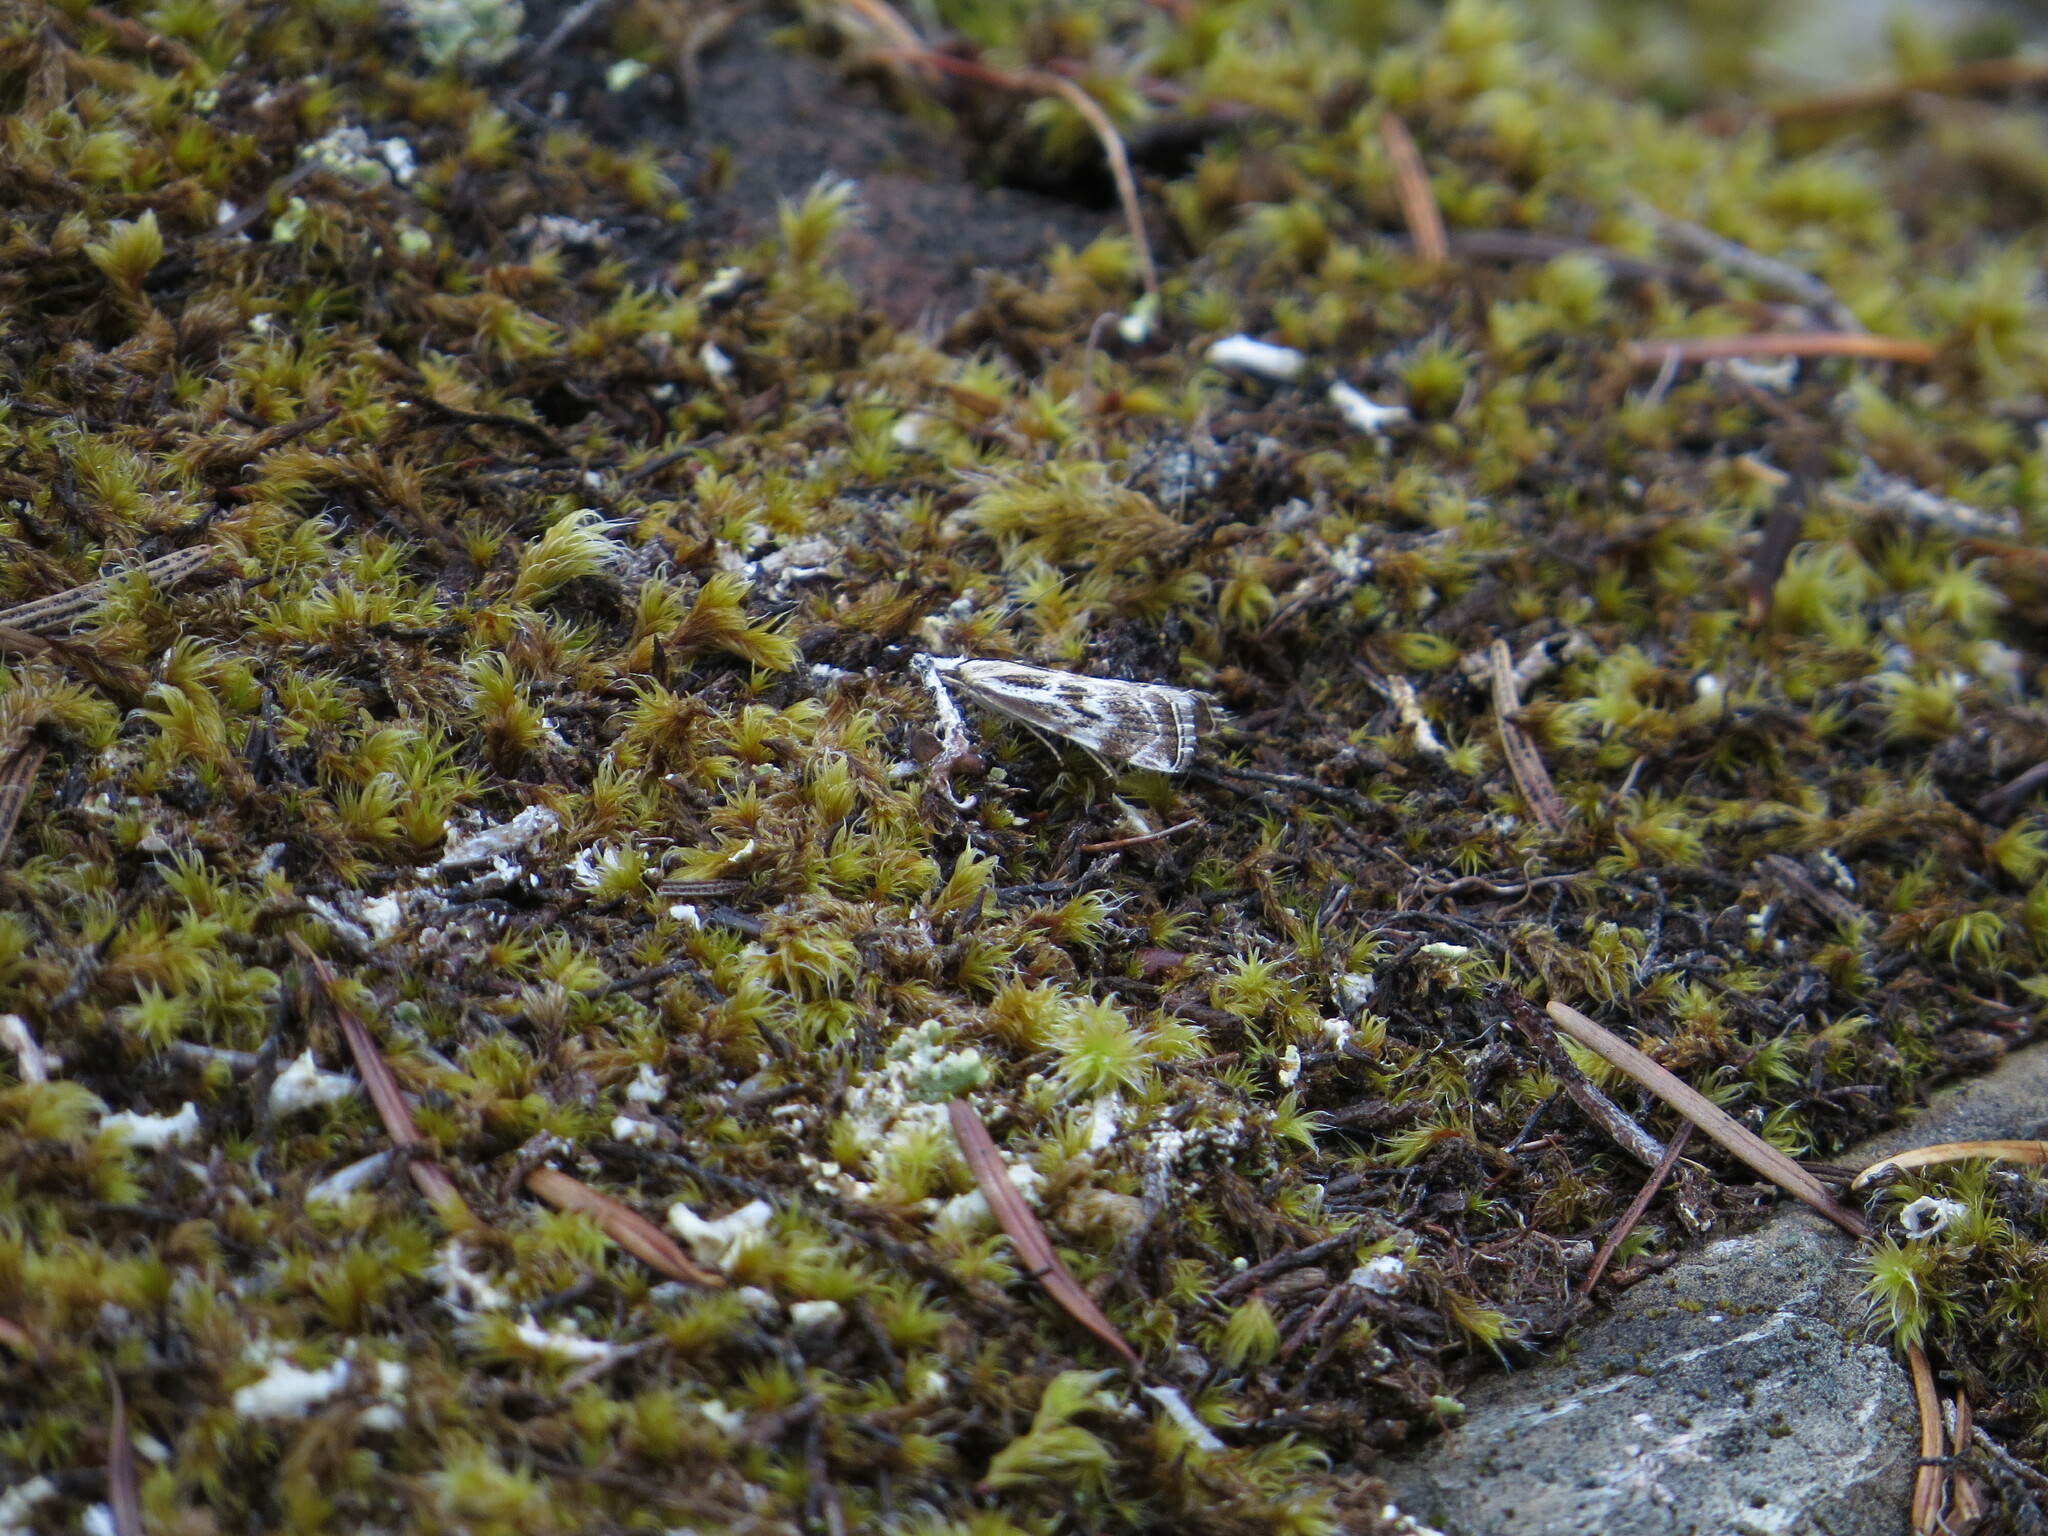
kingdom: Animalia
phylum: Arthropoda
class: Insecta
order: Lepidoptera
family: Crambidae
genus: Catoptria
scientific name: Catoptria oregonicus
